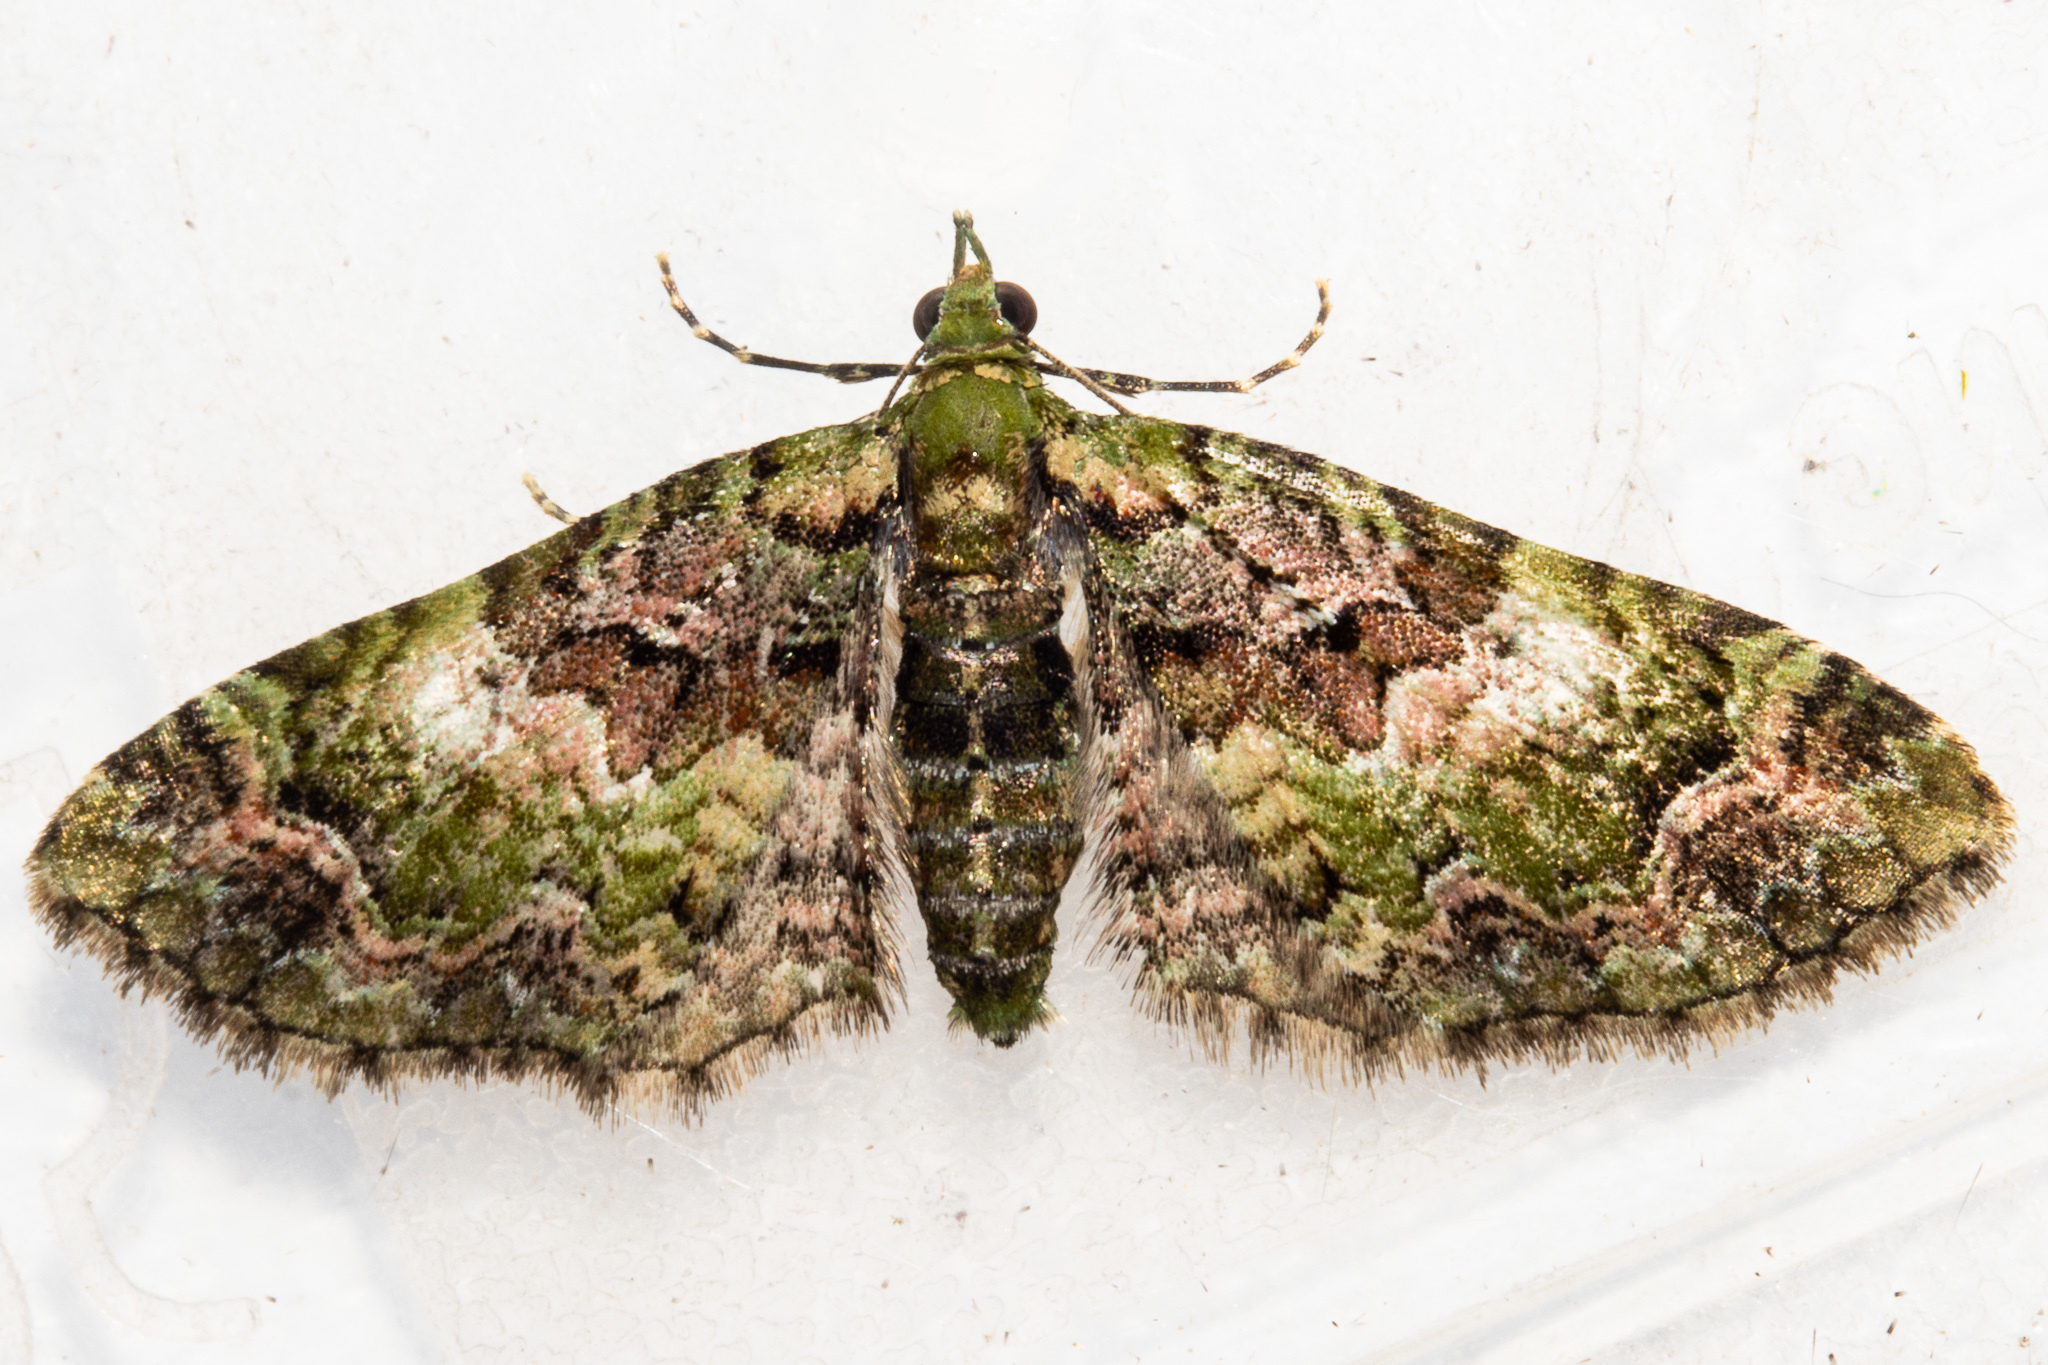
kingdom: Animalia
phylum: Arthropoda
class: Insecta
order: Lepidoptera
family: Geometridae
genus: Pasiphila
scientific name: Pasiphila punicea
